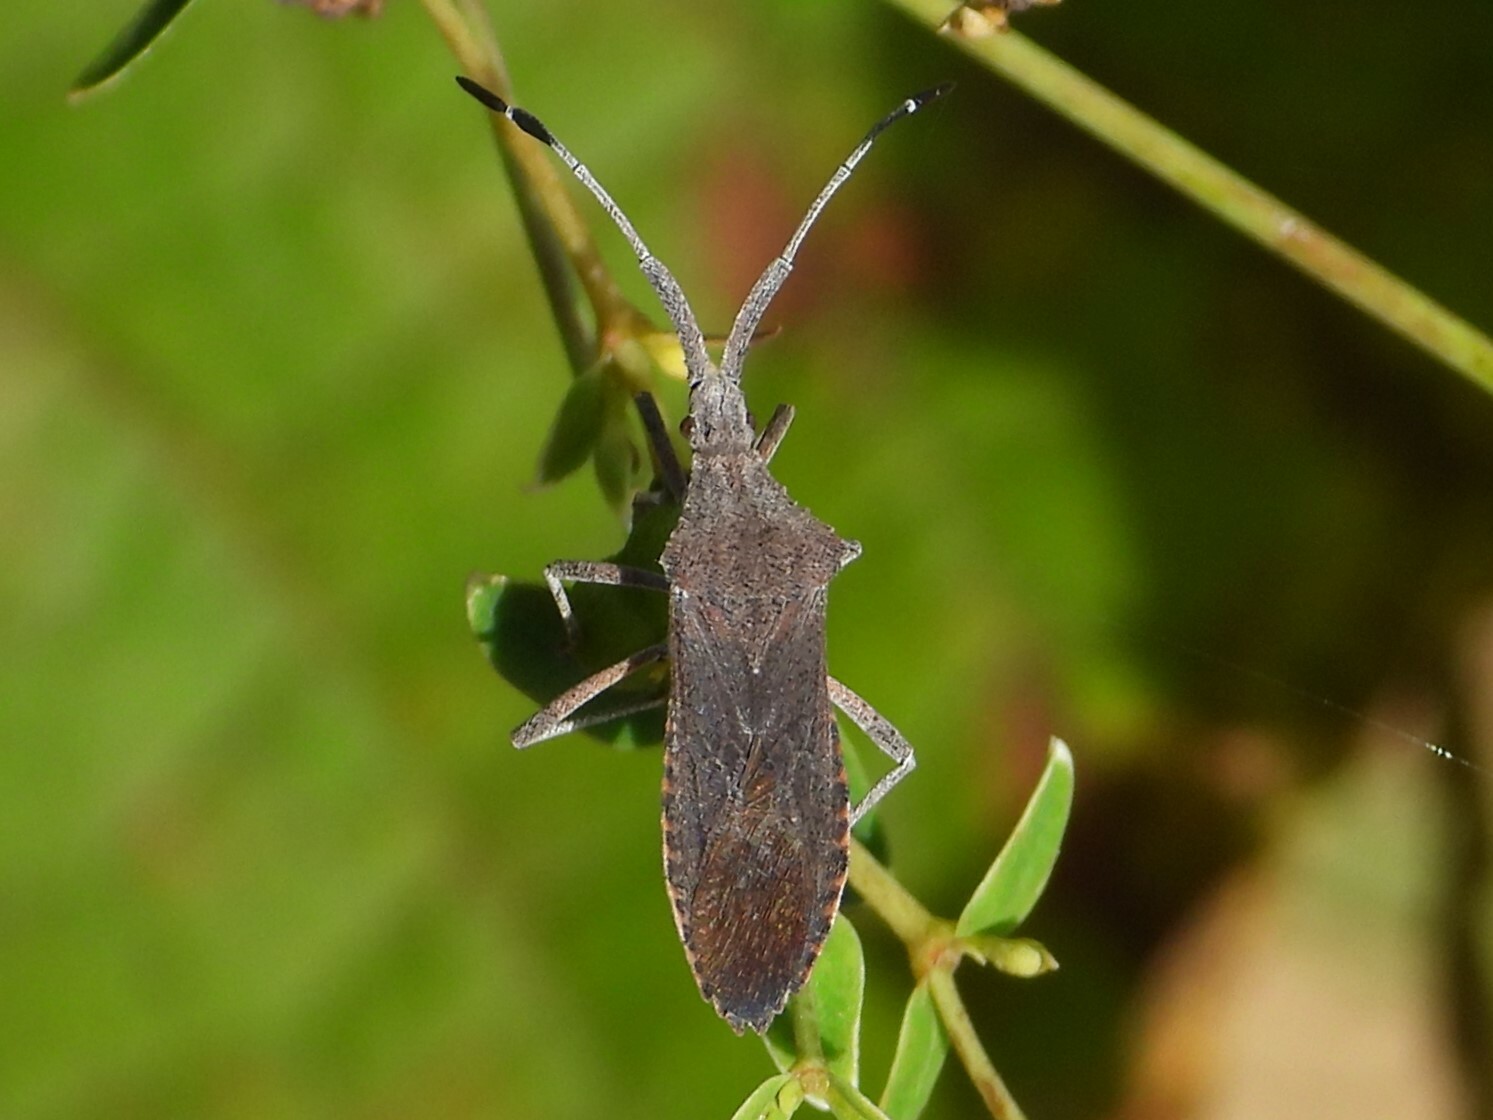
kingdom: Animalia
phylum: Arthropoda
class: Insecta
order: Hemiptera
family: Coreidae
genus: Chariesterus
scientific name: Chariesterus antennator
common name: Flat horned coreid
